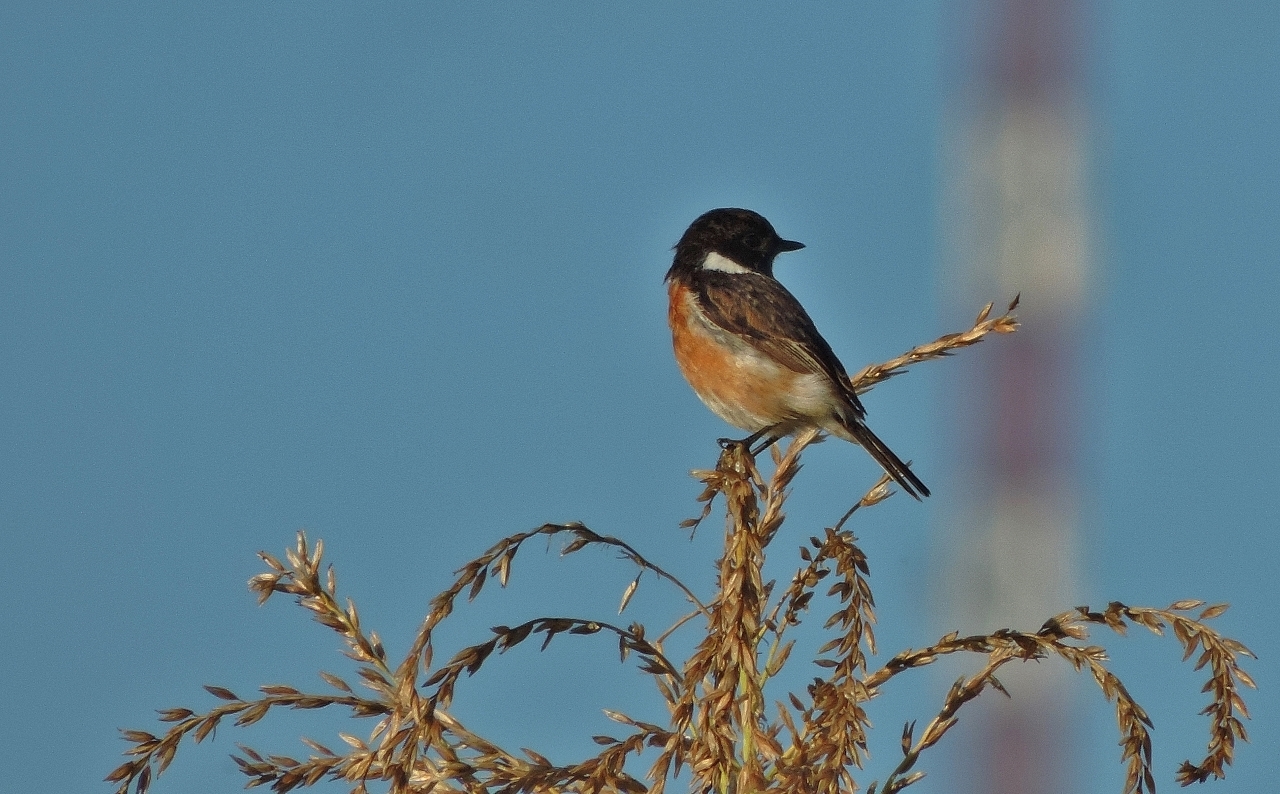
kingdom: Animalia
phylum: Chordata
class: Aves
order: Passeriformes
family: Muscicapidae
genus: Saxicola
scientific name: Saxicola torquatus
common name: African stonechat
